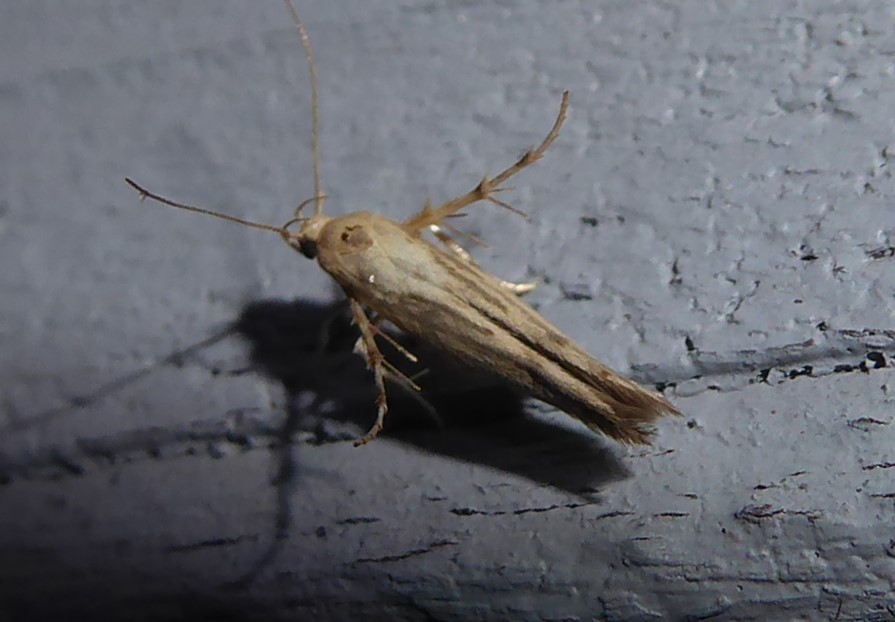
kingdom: Animalia
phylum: Arthropoda
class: Insecta
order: Lepidoptera
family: Stathmopodidae
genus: Stathmopoda
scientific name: Stathmopoda plumbiflua
